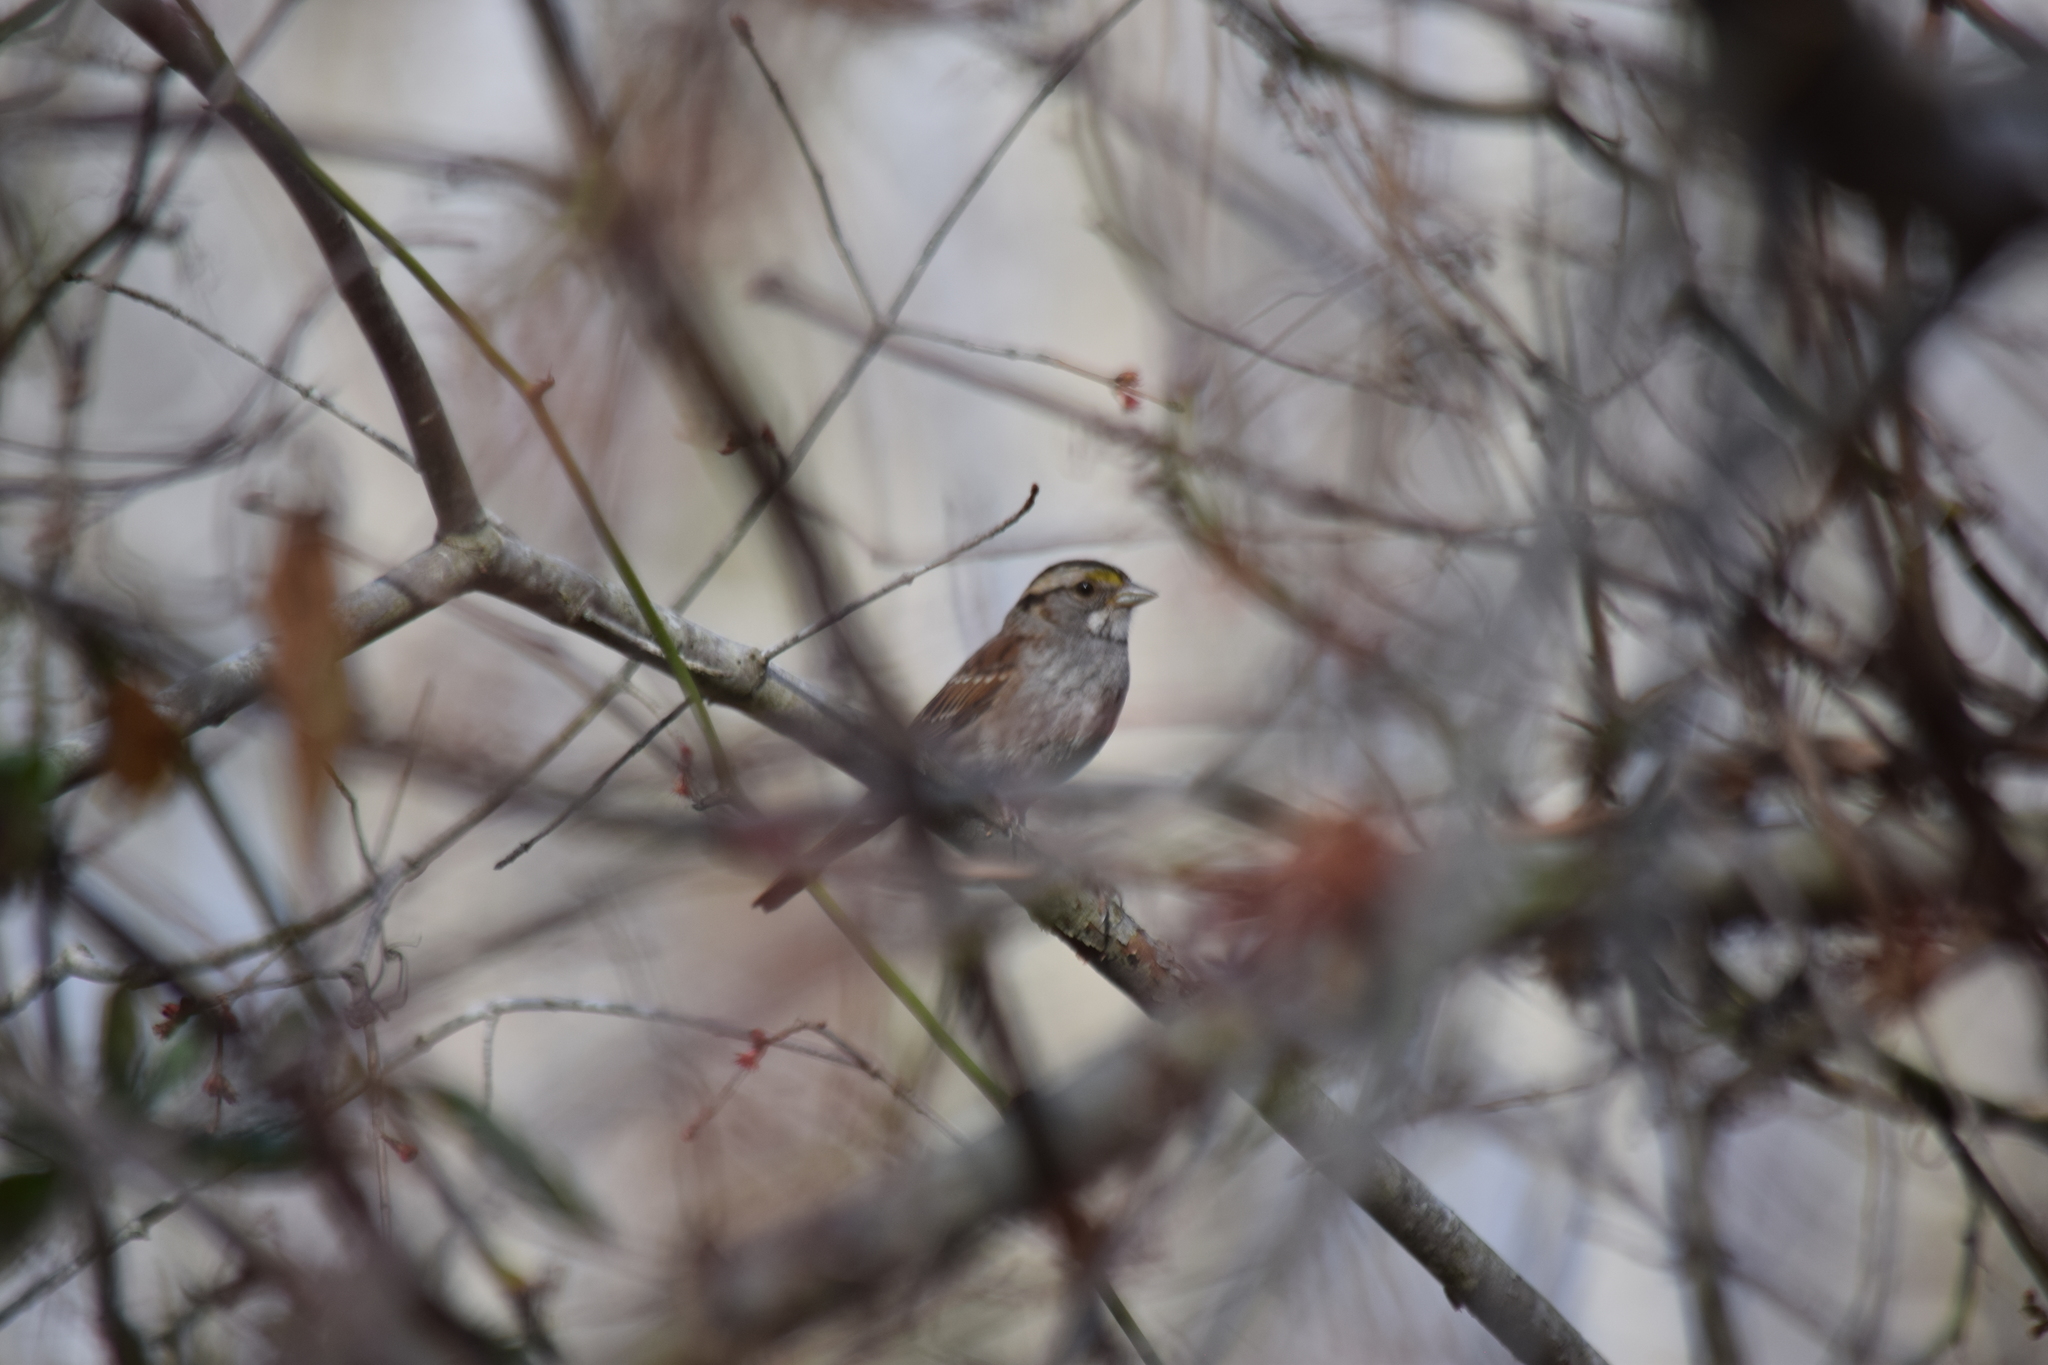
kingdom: Animalia
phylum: Chordata
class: Aves
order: Passeriformes
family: Passerellidae
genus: Zonotrichia
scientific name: Zonotrichia albicollis
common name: White-throated sparrow
